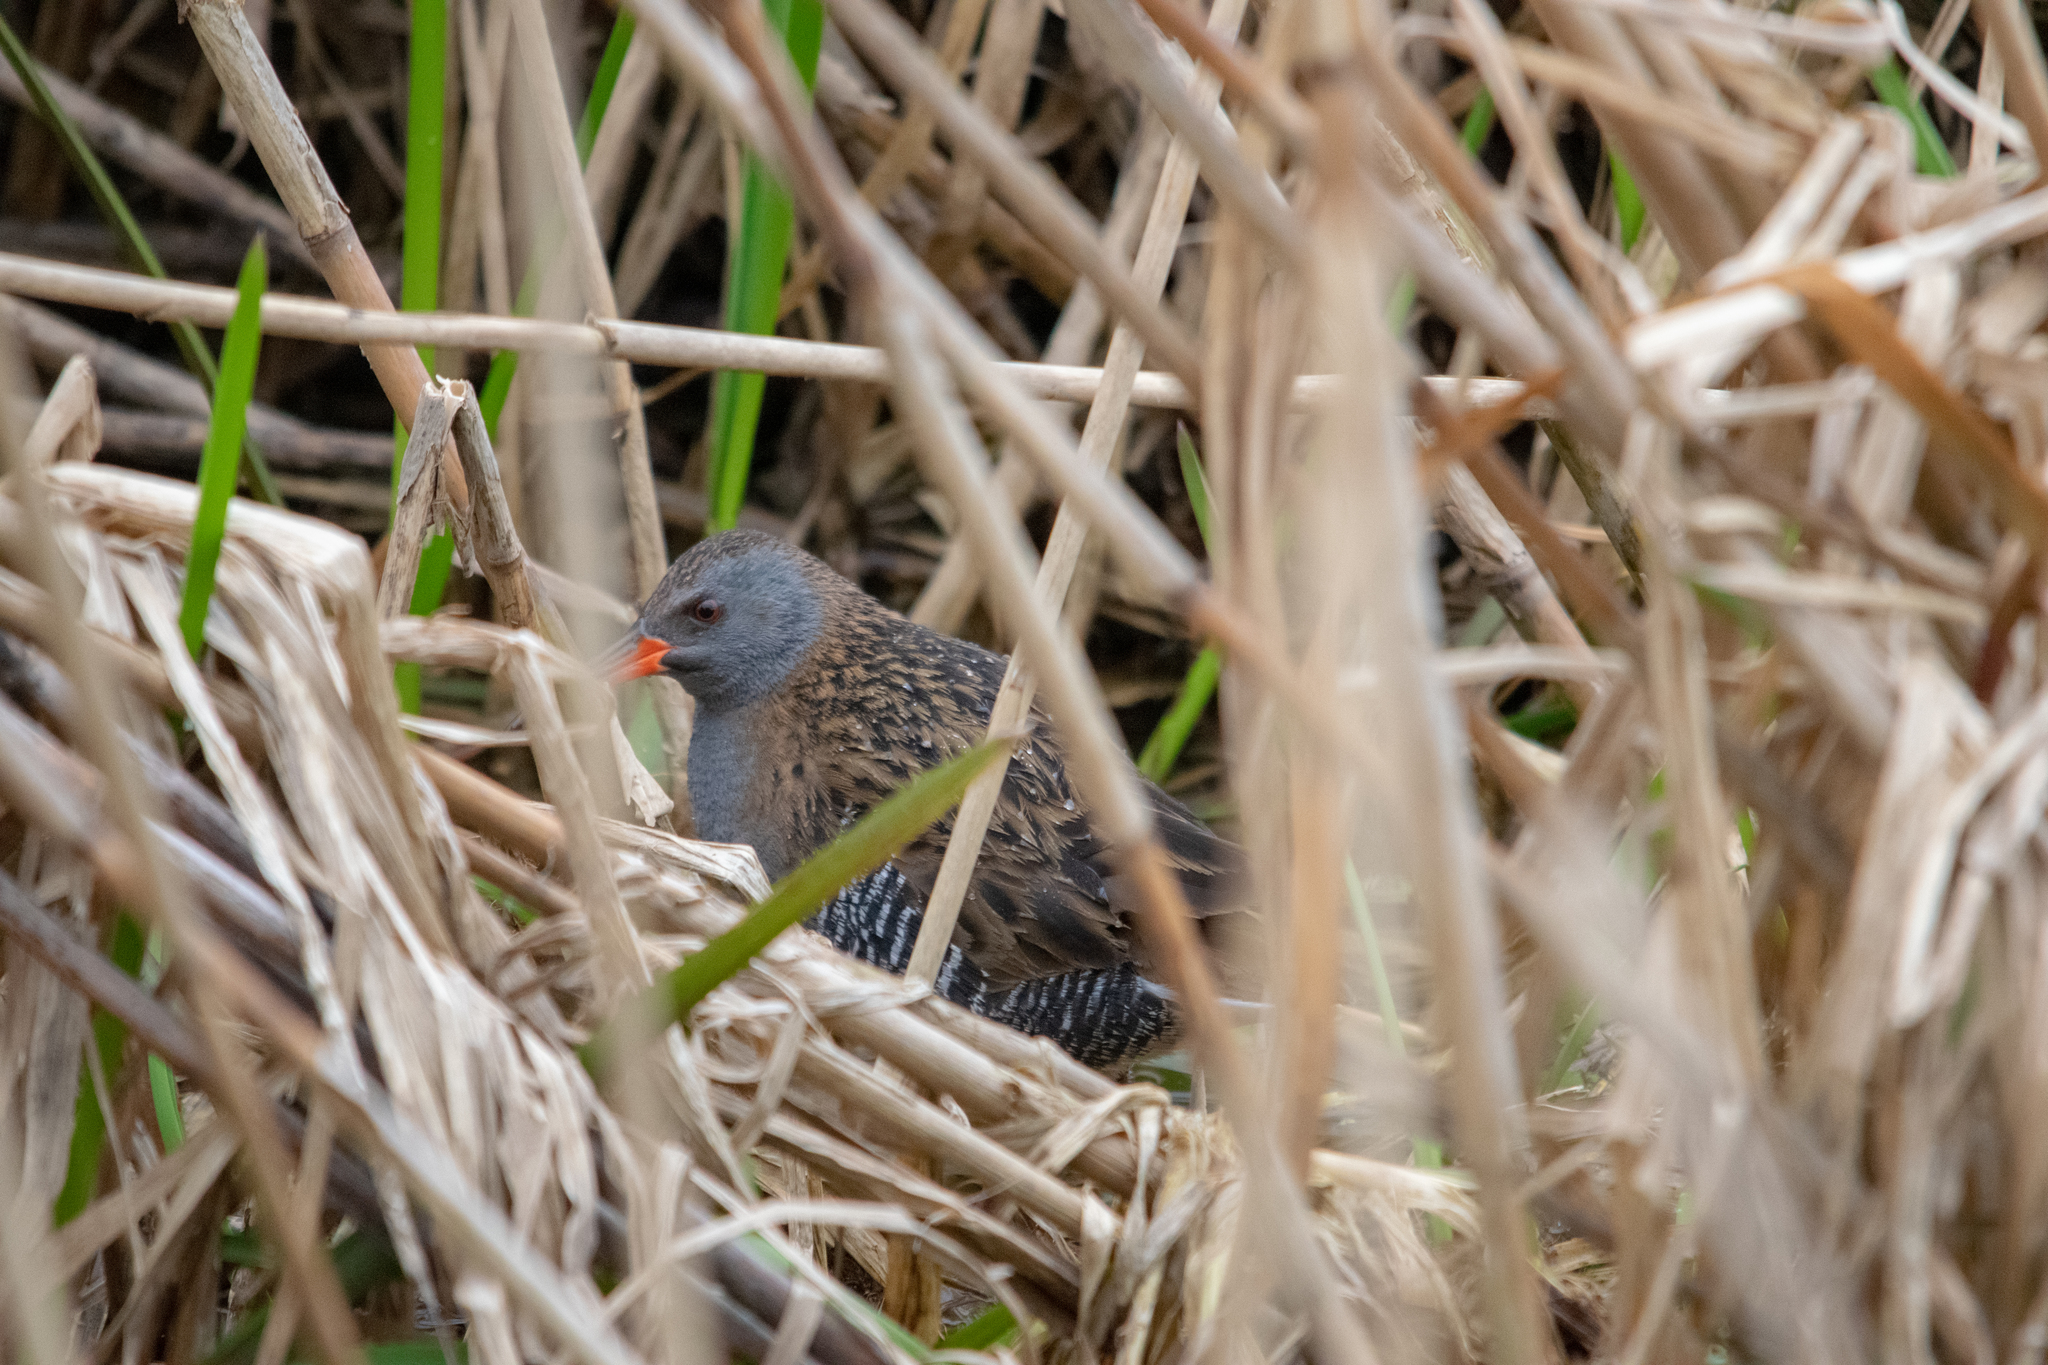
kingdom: Animalia
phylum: Chordata
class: Aves
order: Gruiformes
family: Rallidae
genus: Rallus
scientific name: Rallus aquaticus
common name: Water rail
